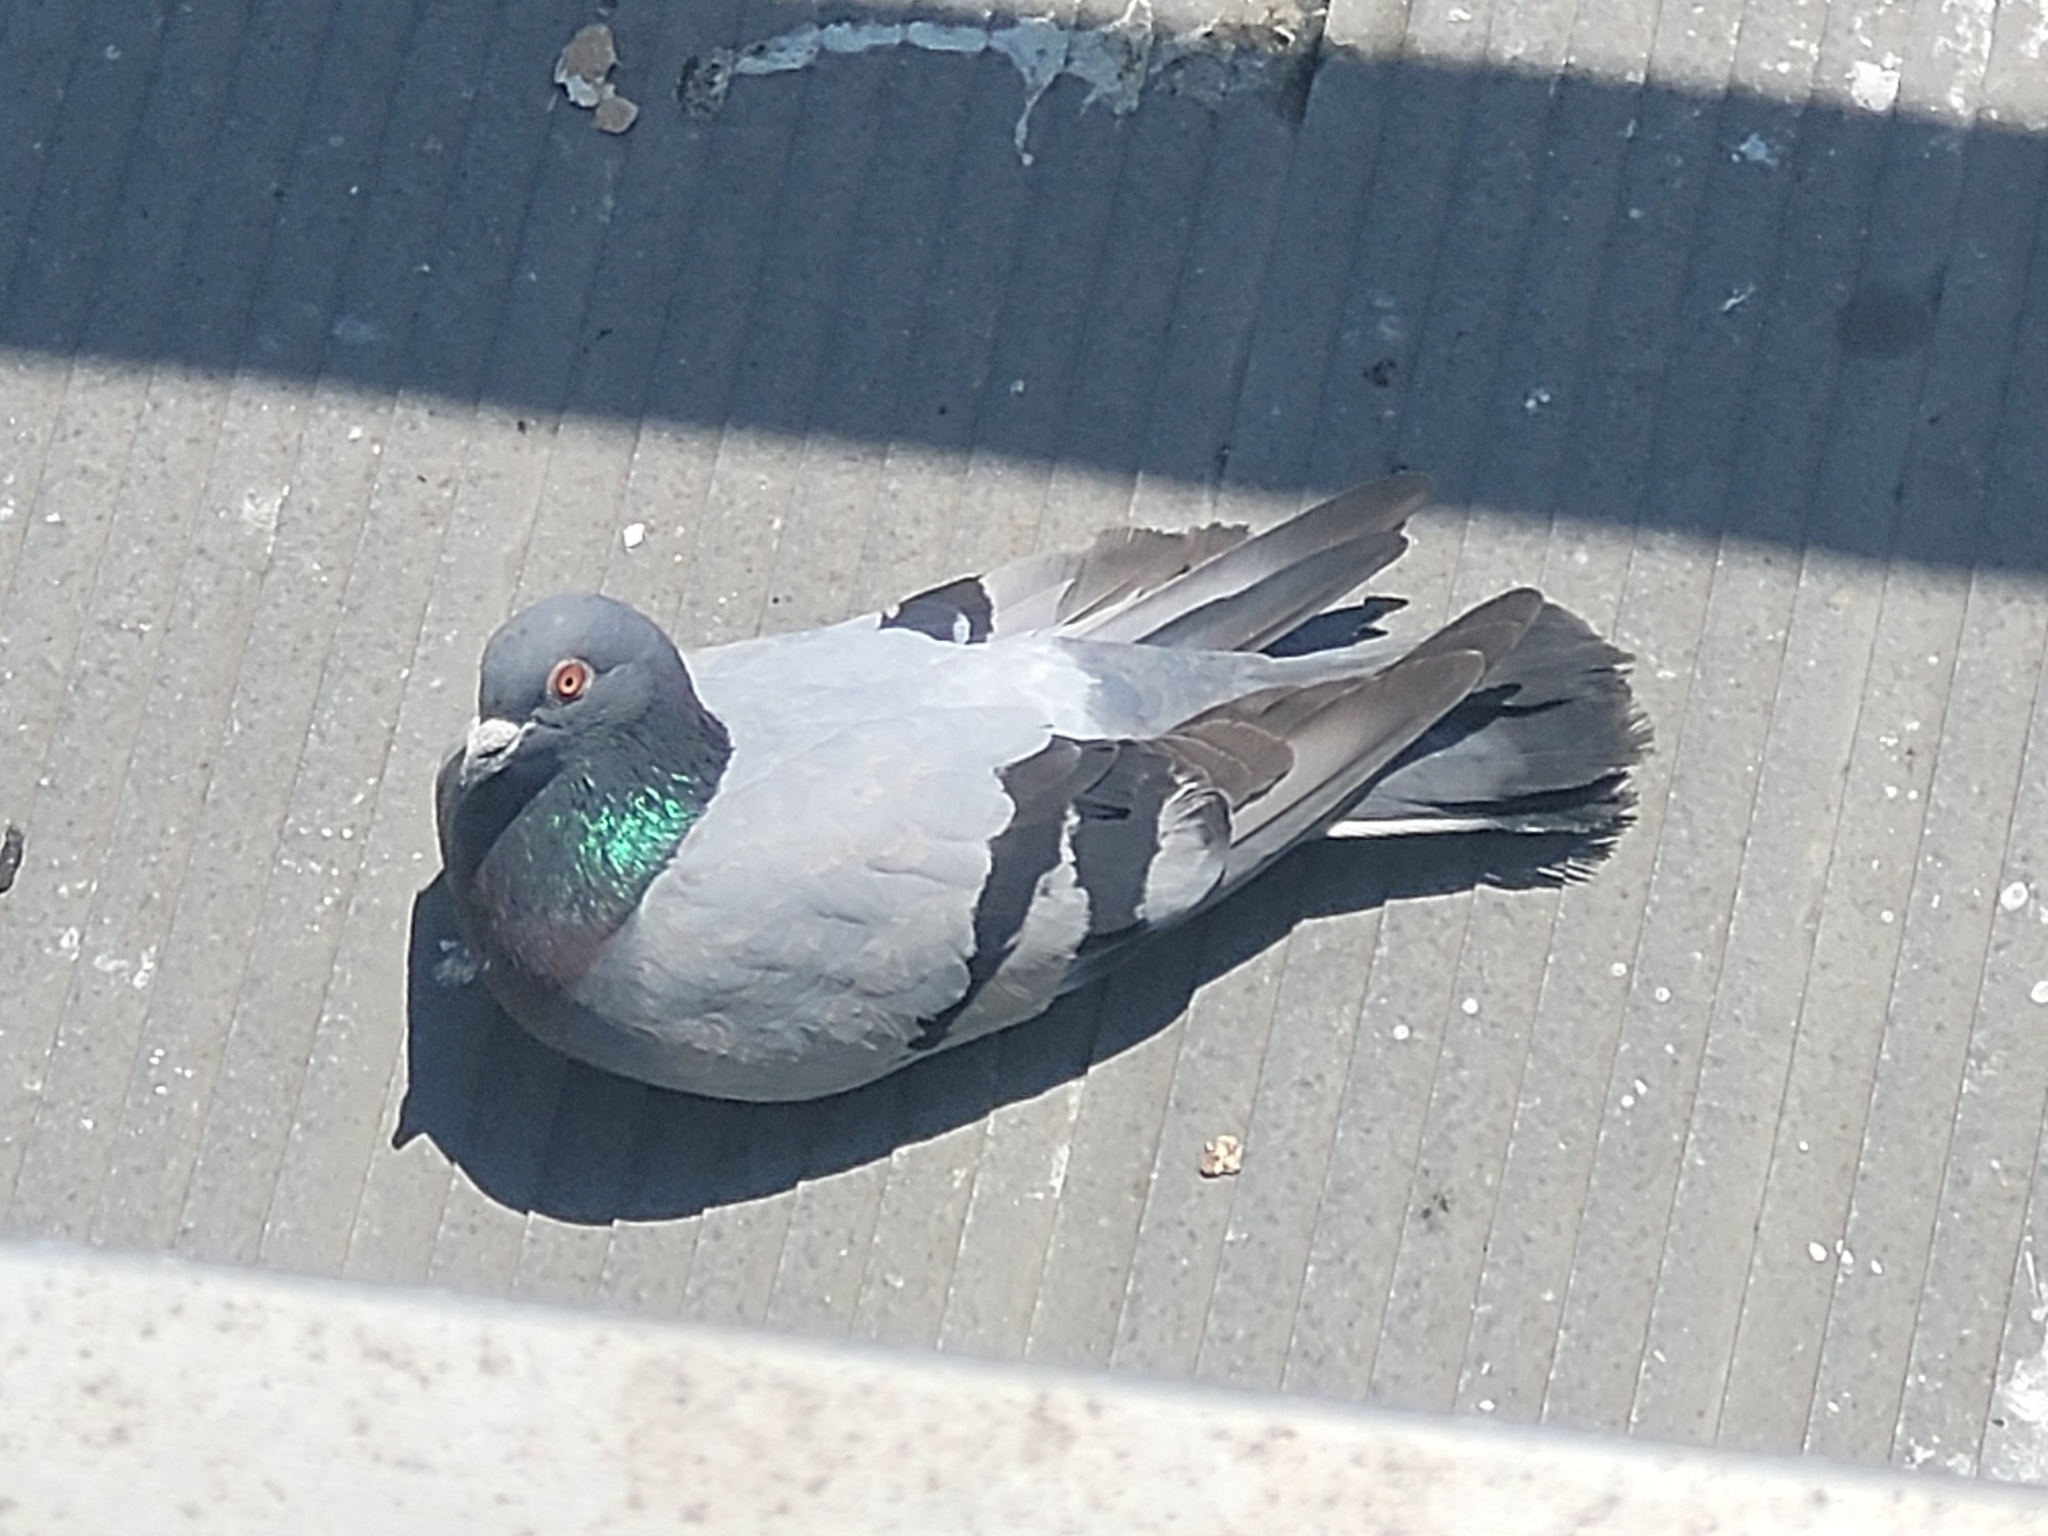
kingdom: Animalia
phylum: Chordata
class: Aves
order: Columbiformes
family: Columbidae
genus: Columba
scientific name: Columba livia
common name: Rock pigeon
